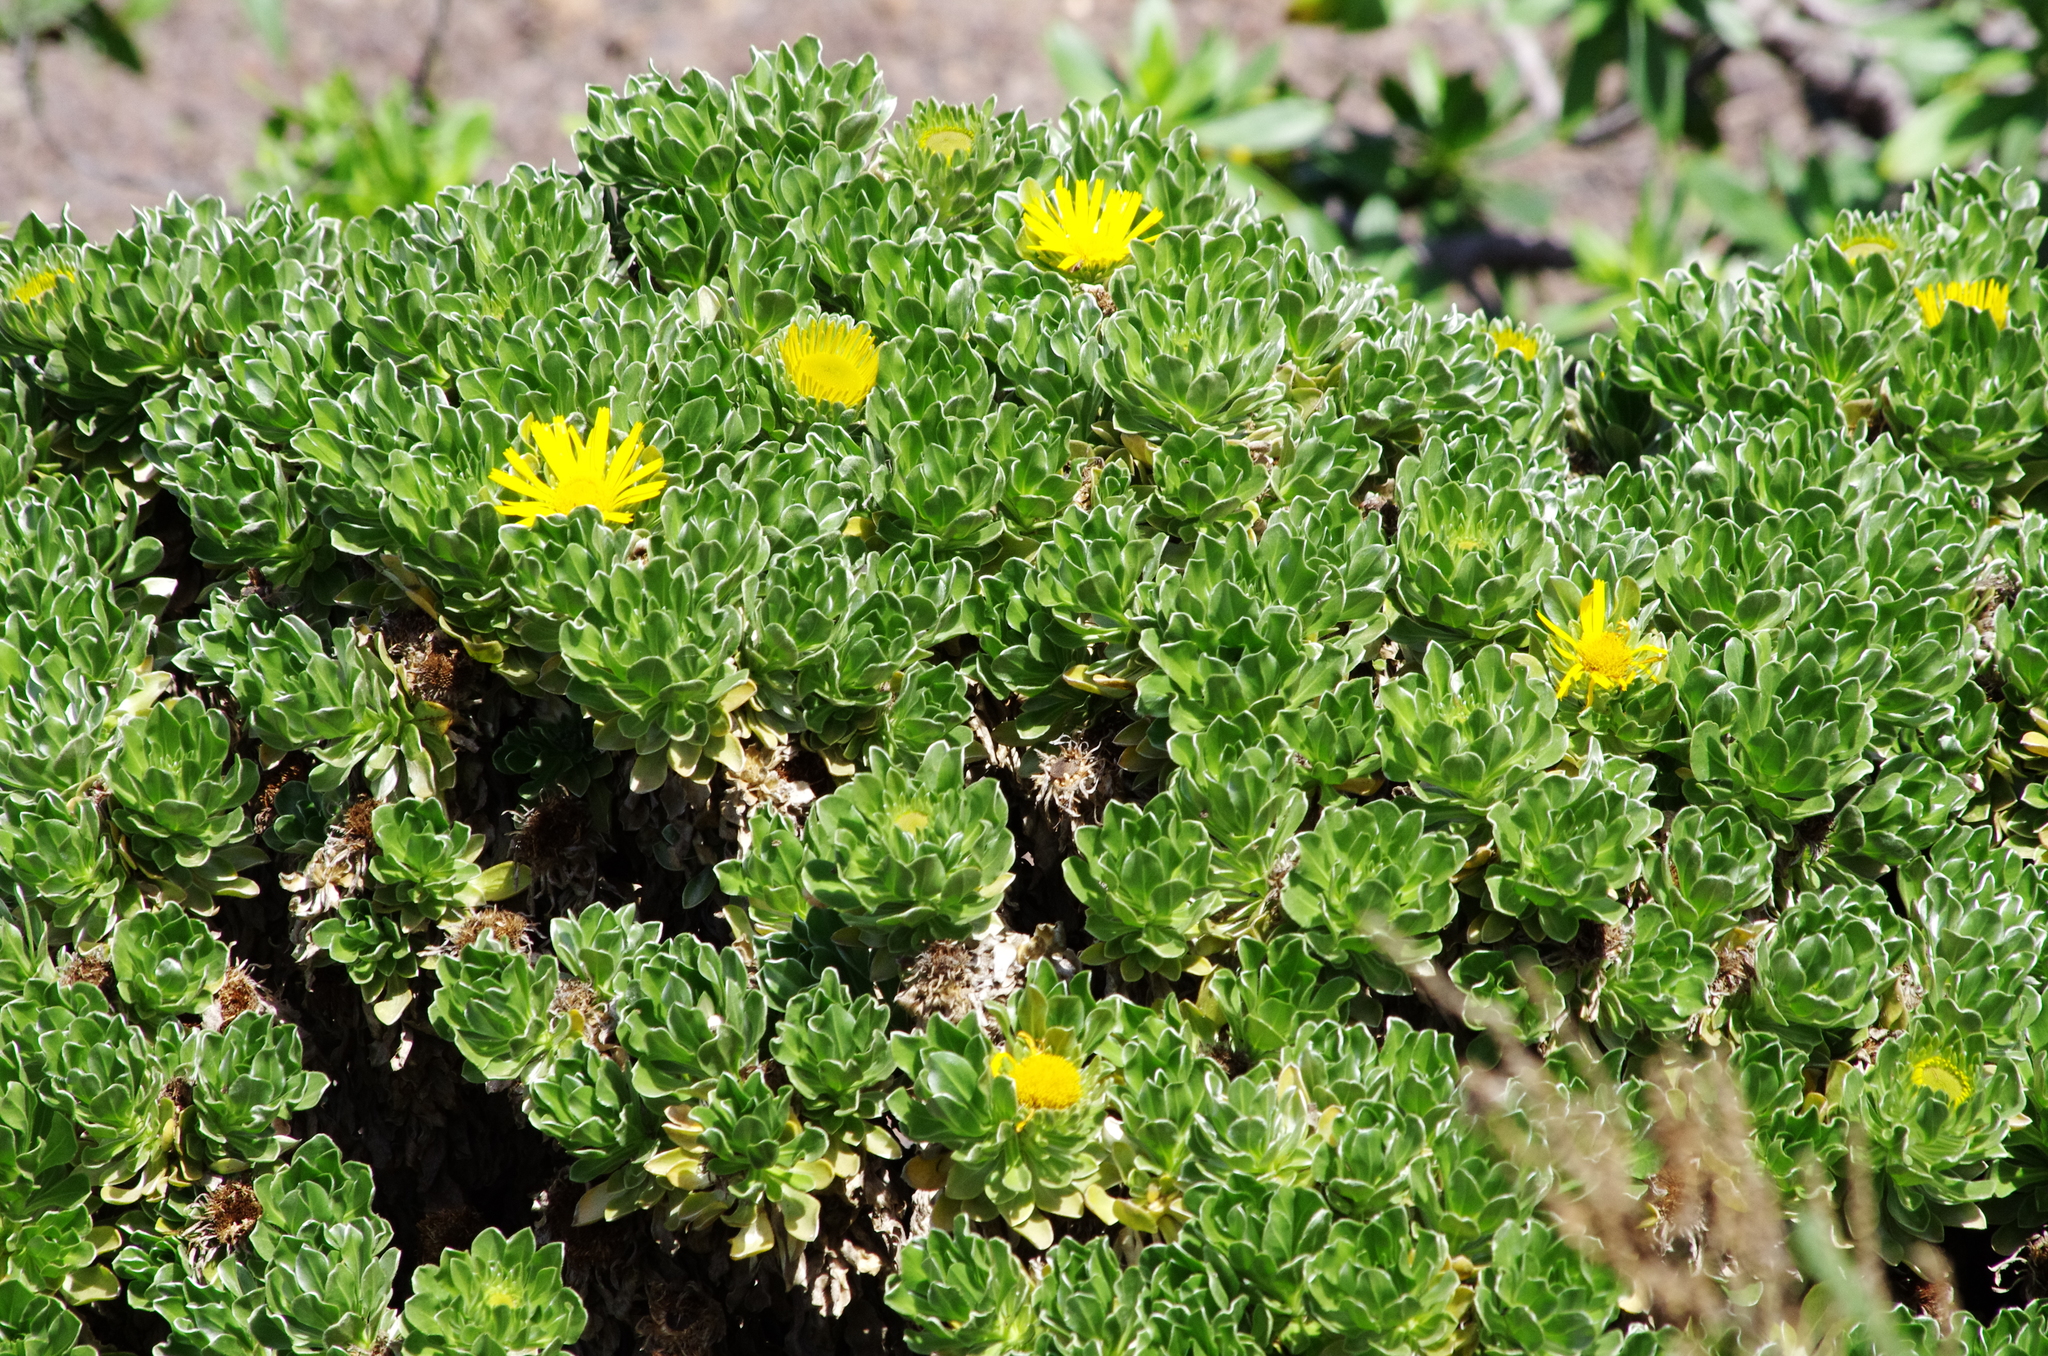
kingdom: Plantae
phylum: Tracheophyta
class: Magnoliopsida
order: Asterales
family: Asteraceae
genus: Asteriscus
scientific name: Asteriscus sericeus
